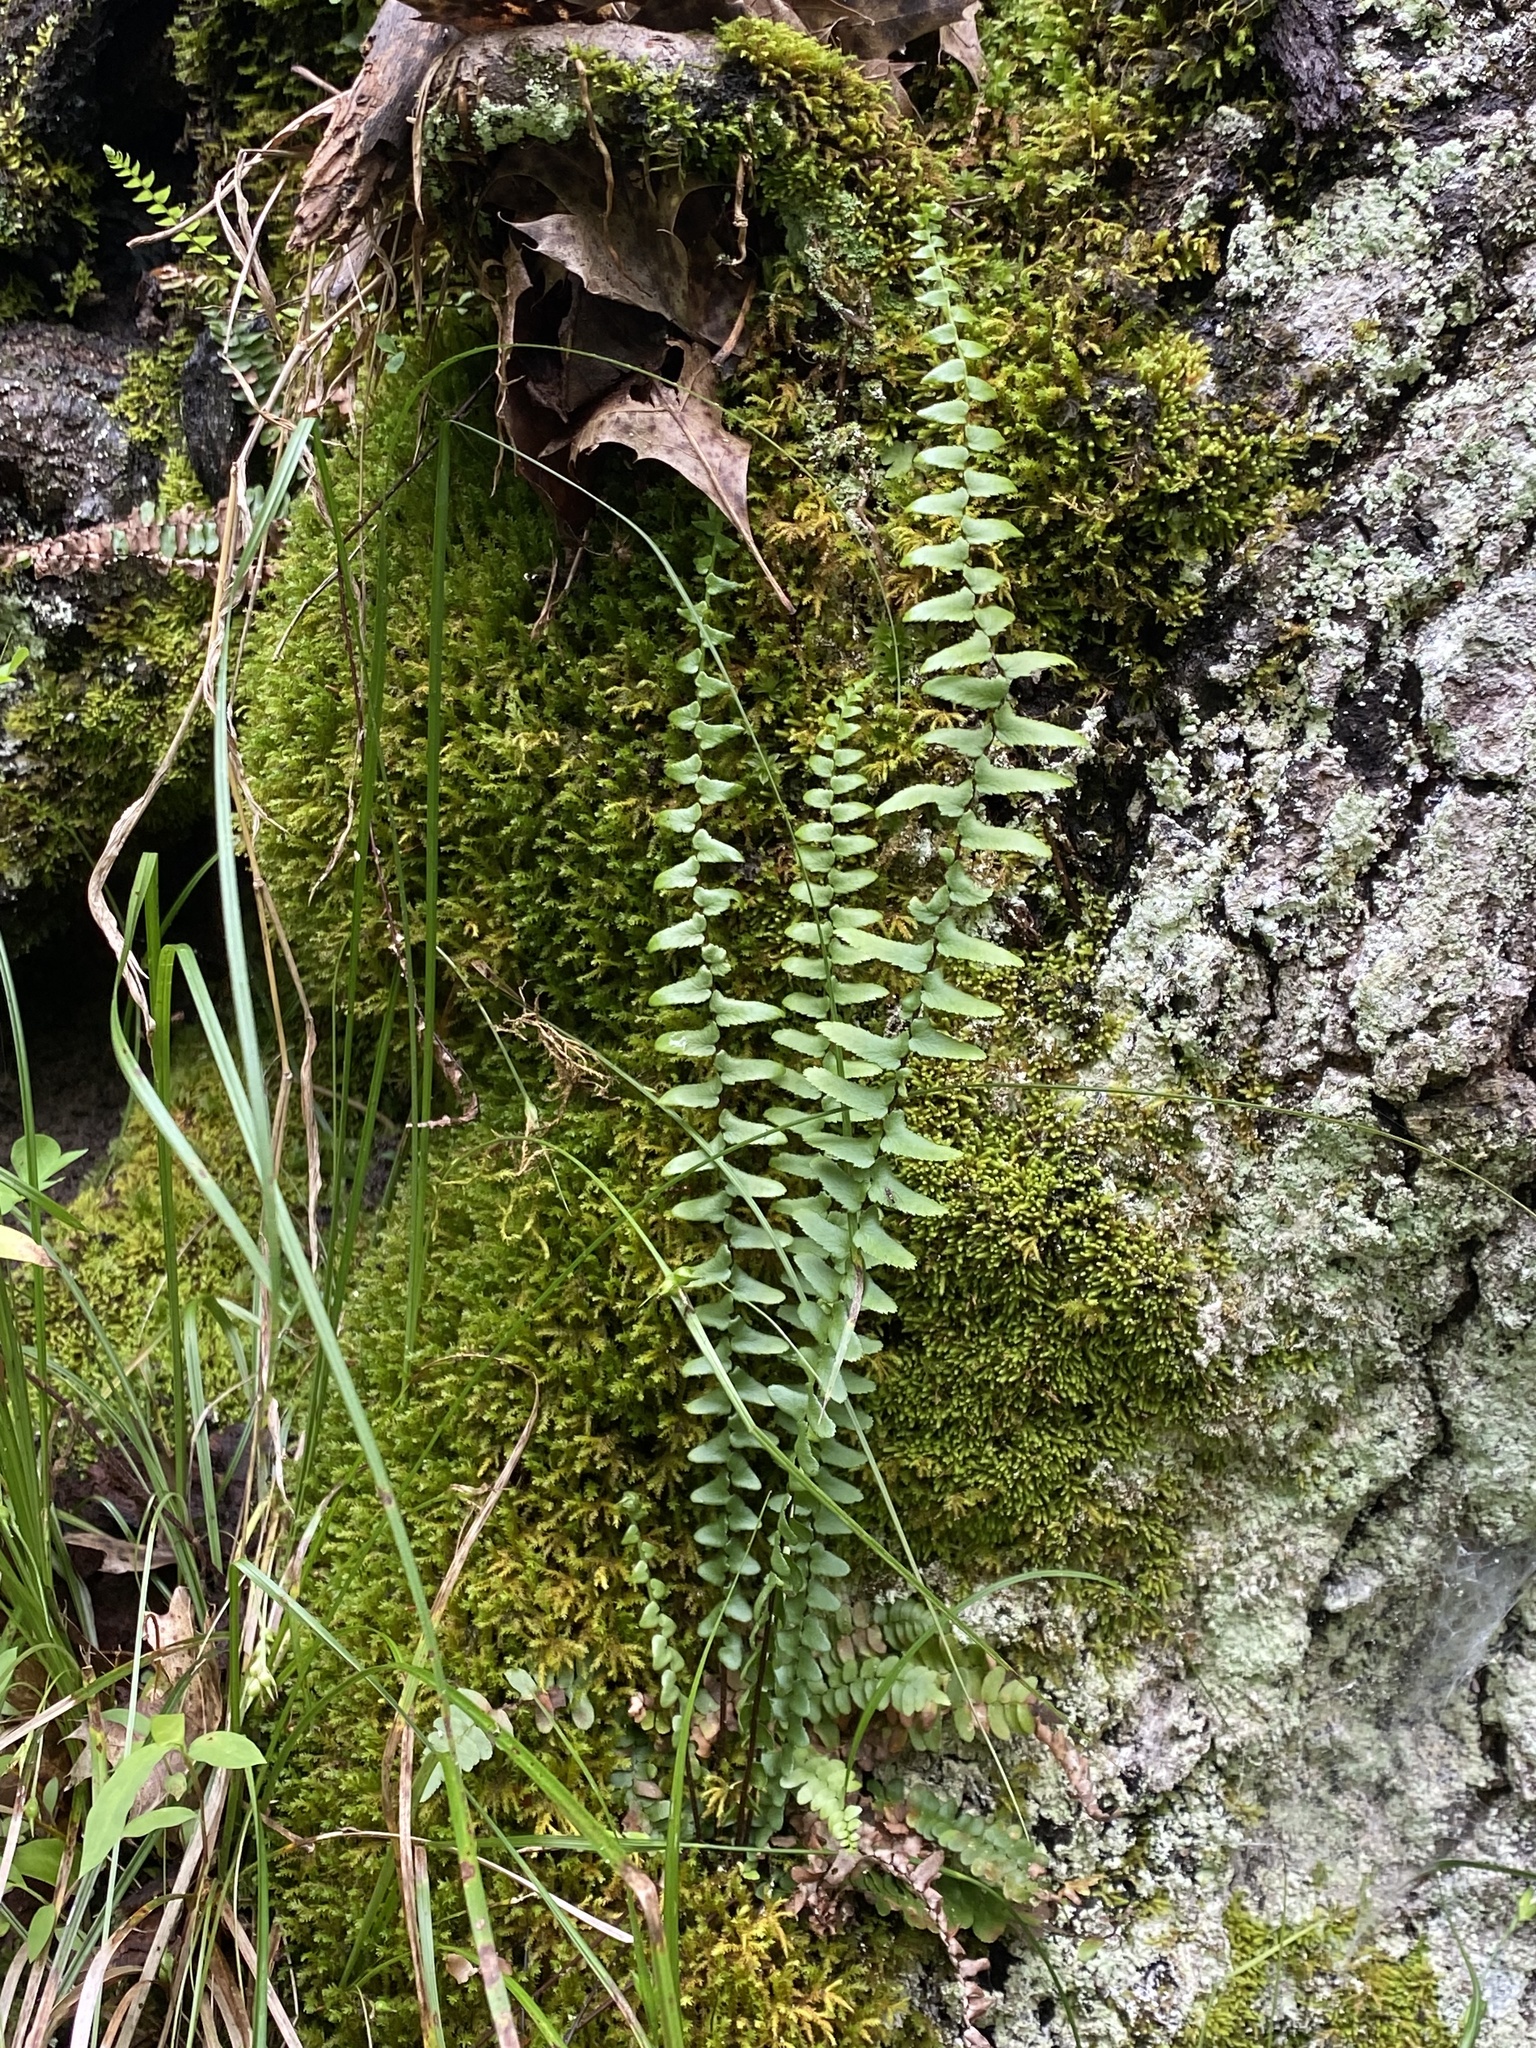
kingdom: Plantae
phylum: Tracheophyta
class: Polypodiopsida
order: Polypodiales
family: Aspleniaceae
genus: Asplenium
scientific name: Asplenium platyneuron
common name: Ebony spleenwort
